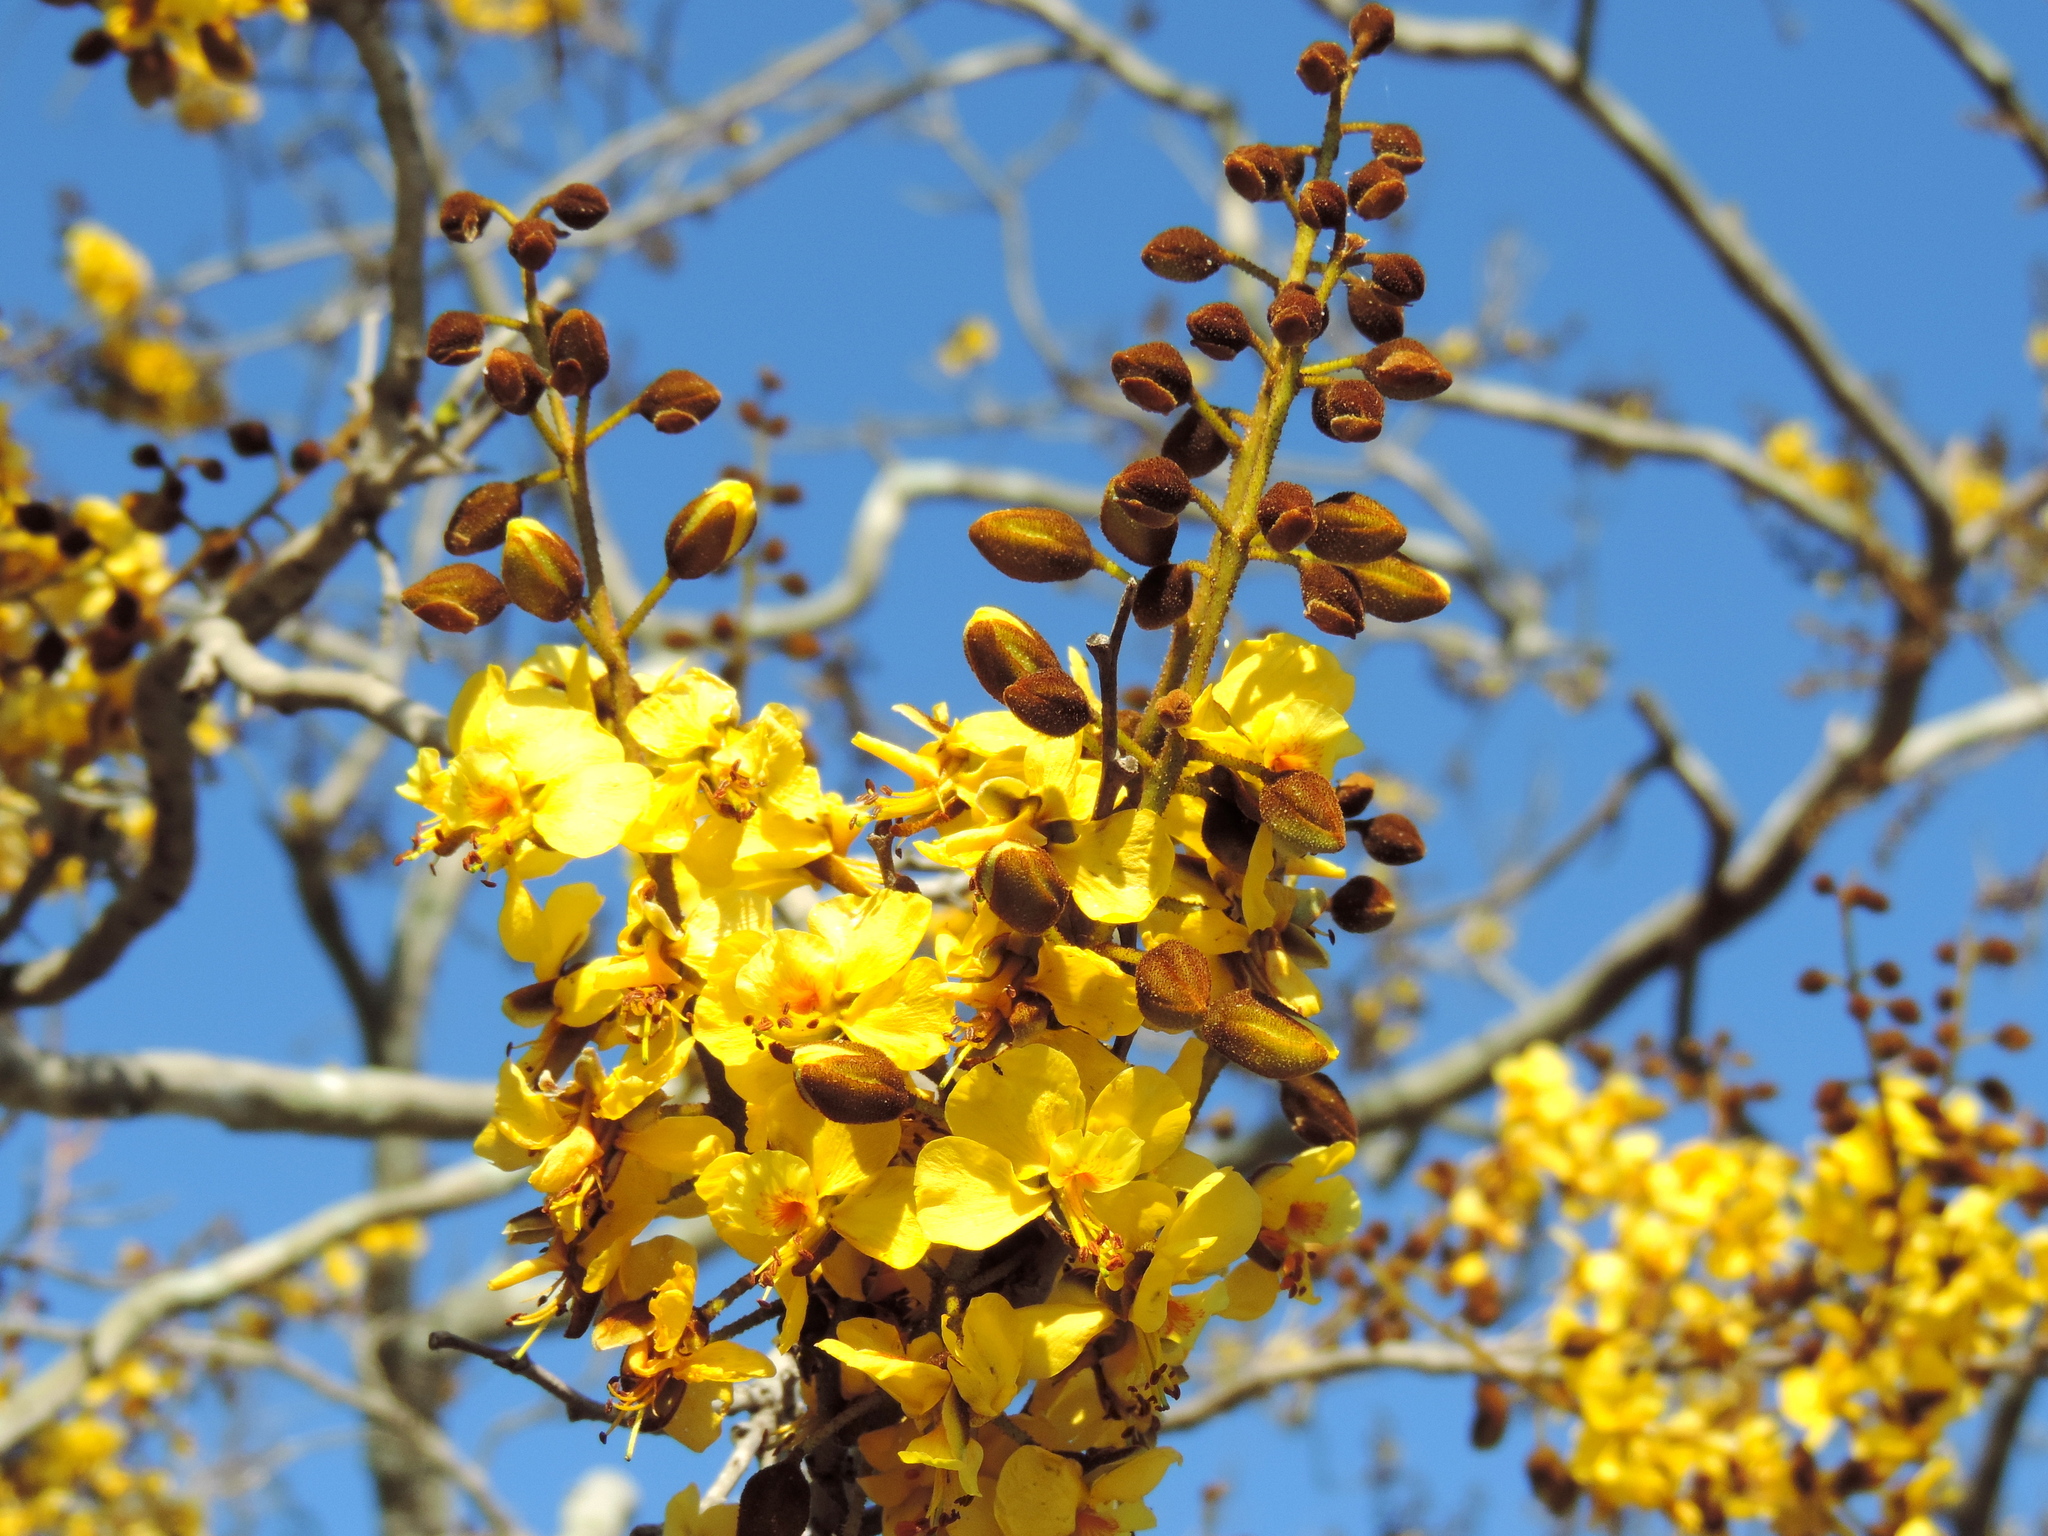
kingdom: Plantae
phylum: Tracheophyta
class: Magnoliopsida
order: Fabales
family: Fabaceae
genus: Cenostigma
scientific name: Cenostigma eriostachys
